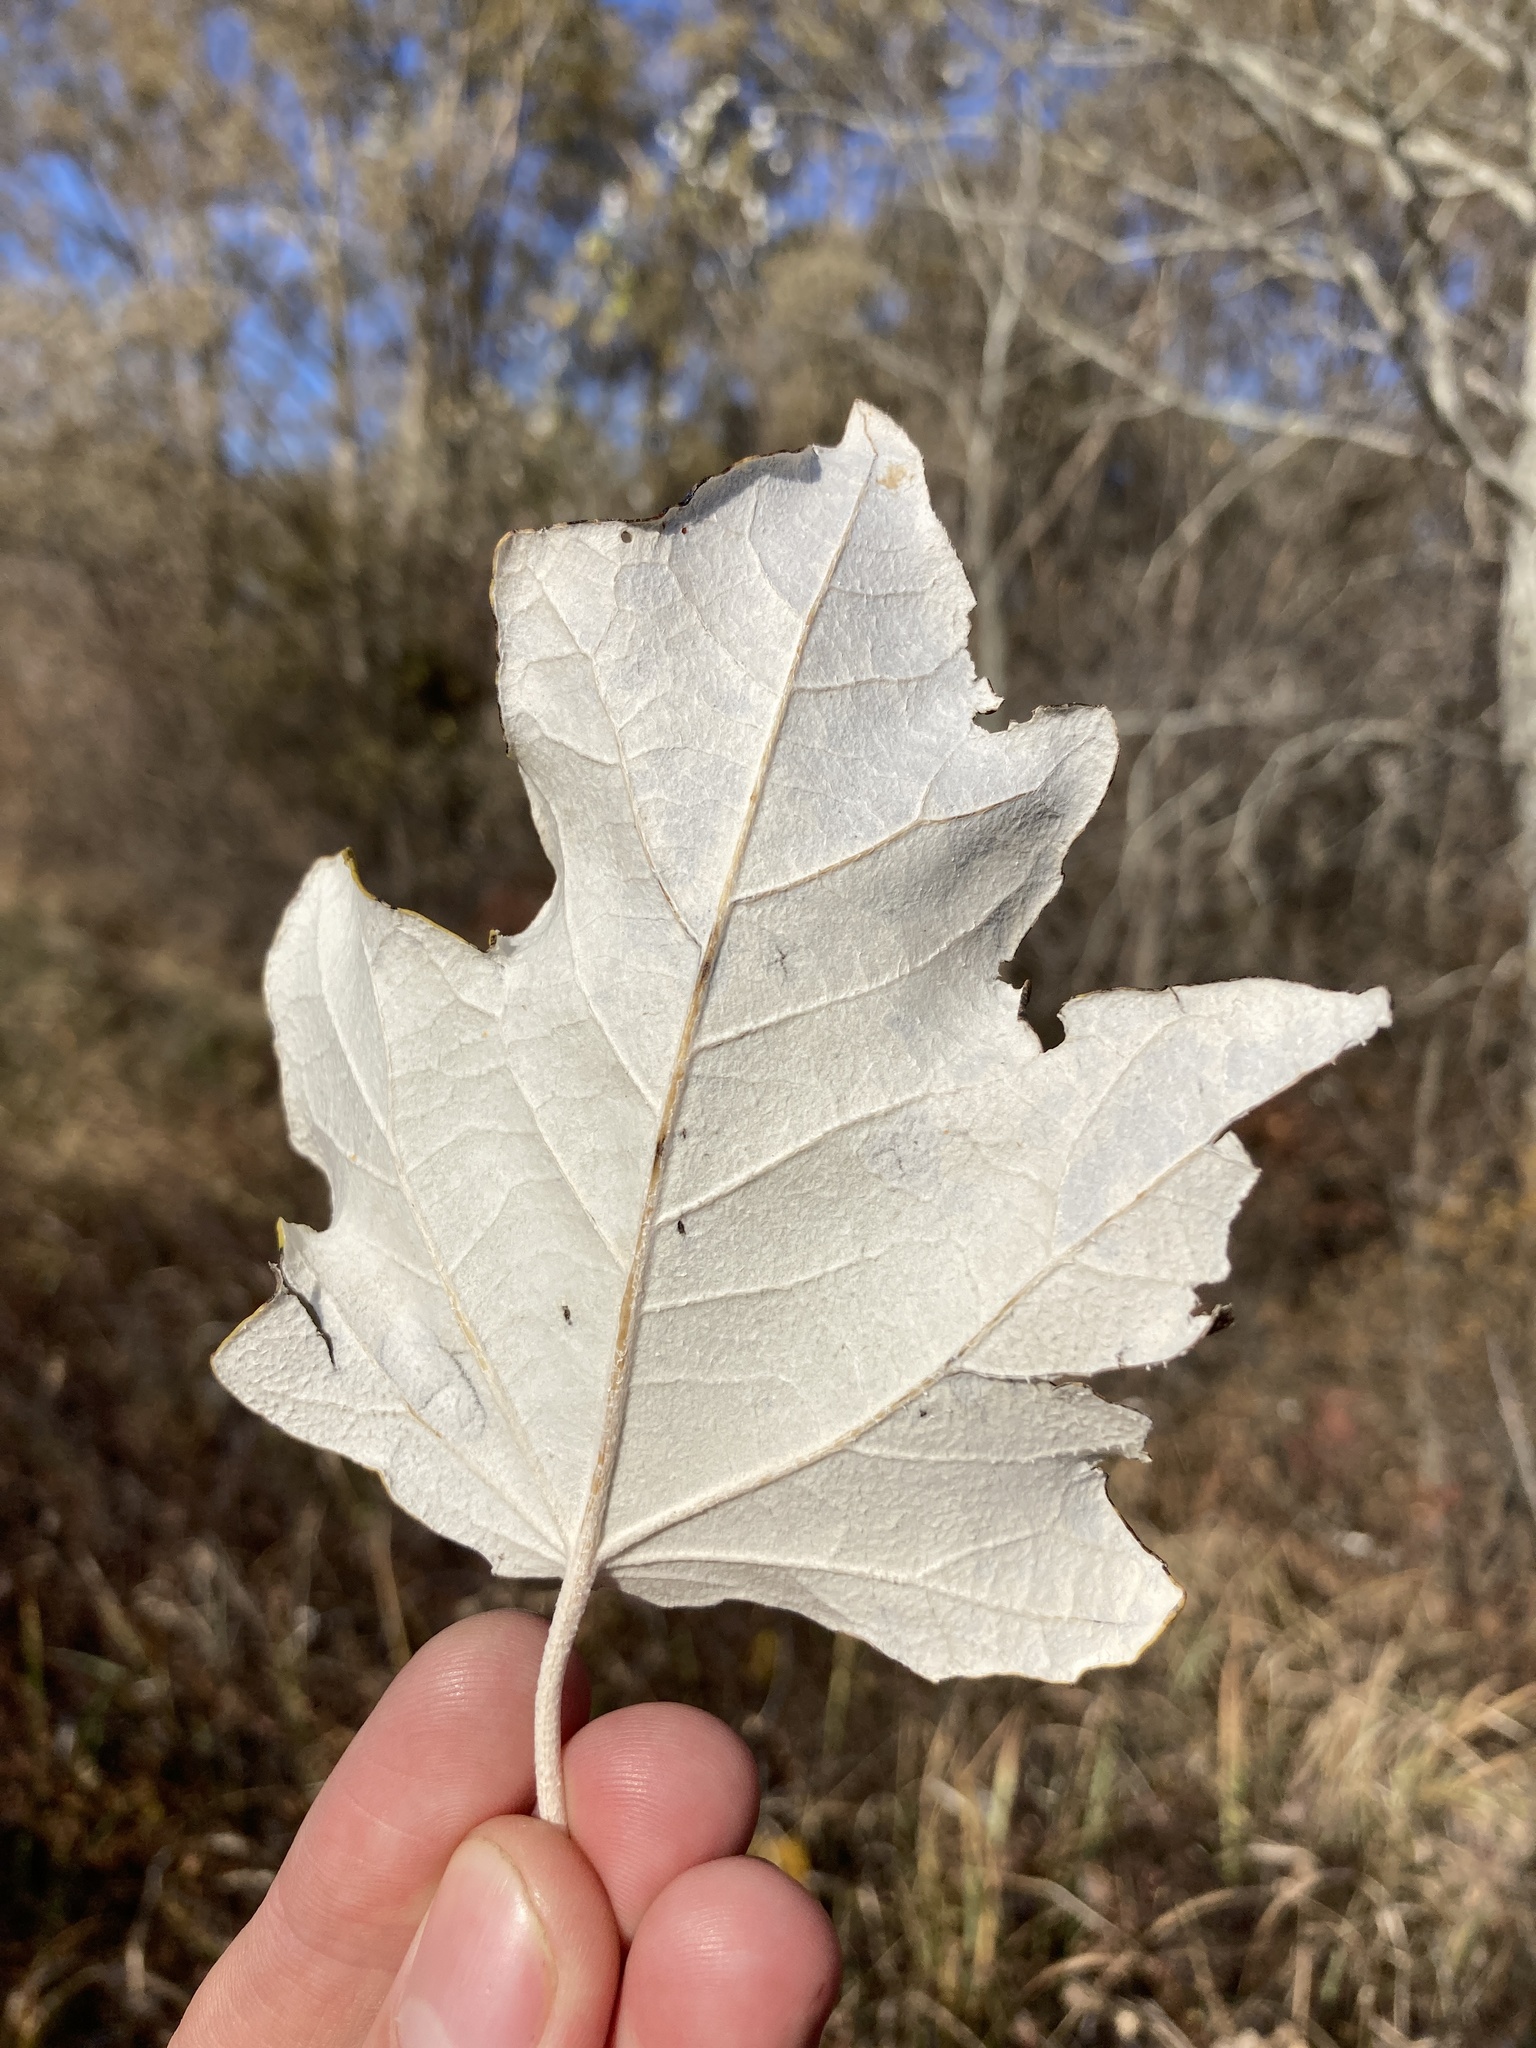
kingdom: Plantae
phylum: Tracheophyta
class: Magnoliopsida
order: Malpighiales
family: Salicaceae
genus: Populus
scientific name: Populus alba
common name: White poplar
